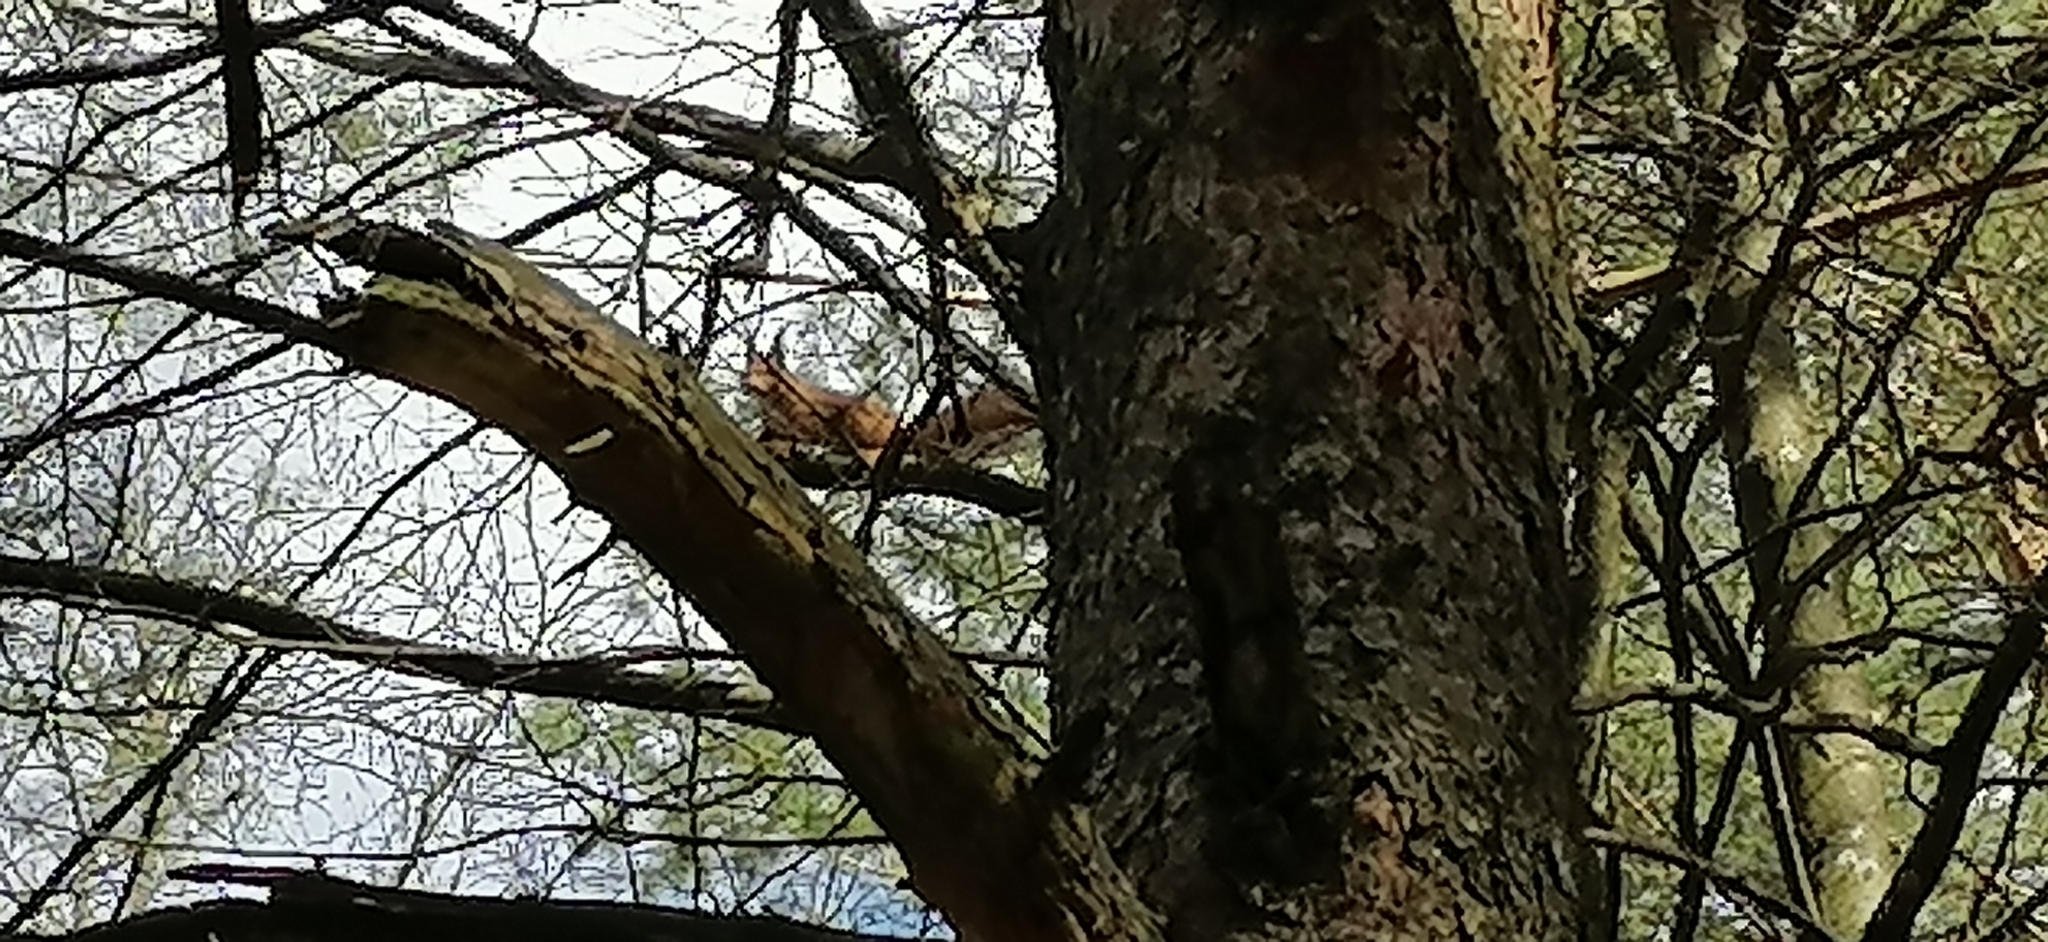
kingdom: Animalia
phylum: Chordata
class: Mammalia
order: Rodentia
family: Sciuridae
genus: Sciurus
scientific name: Sciurus vulgaris
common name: Eurasian red squirrel
